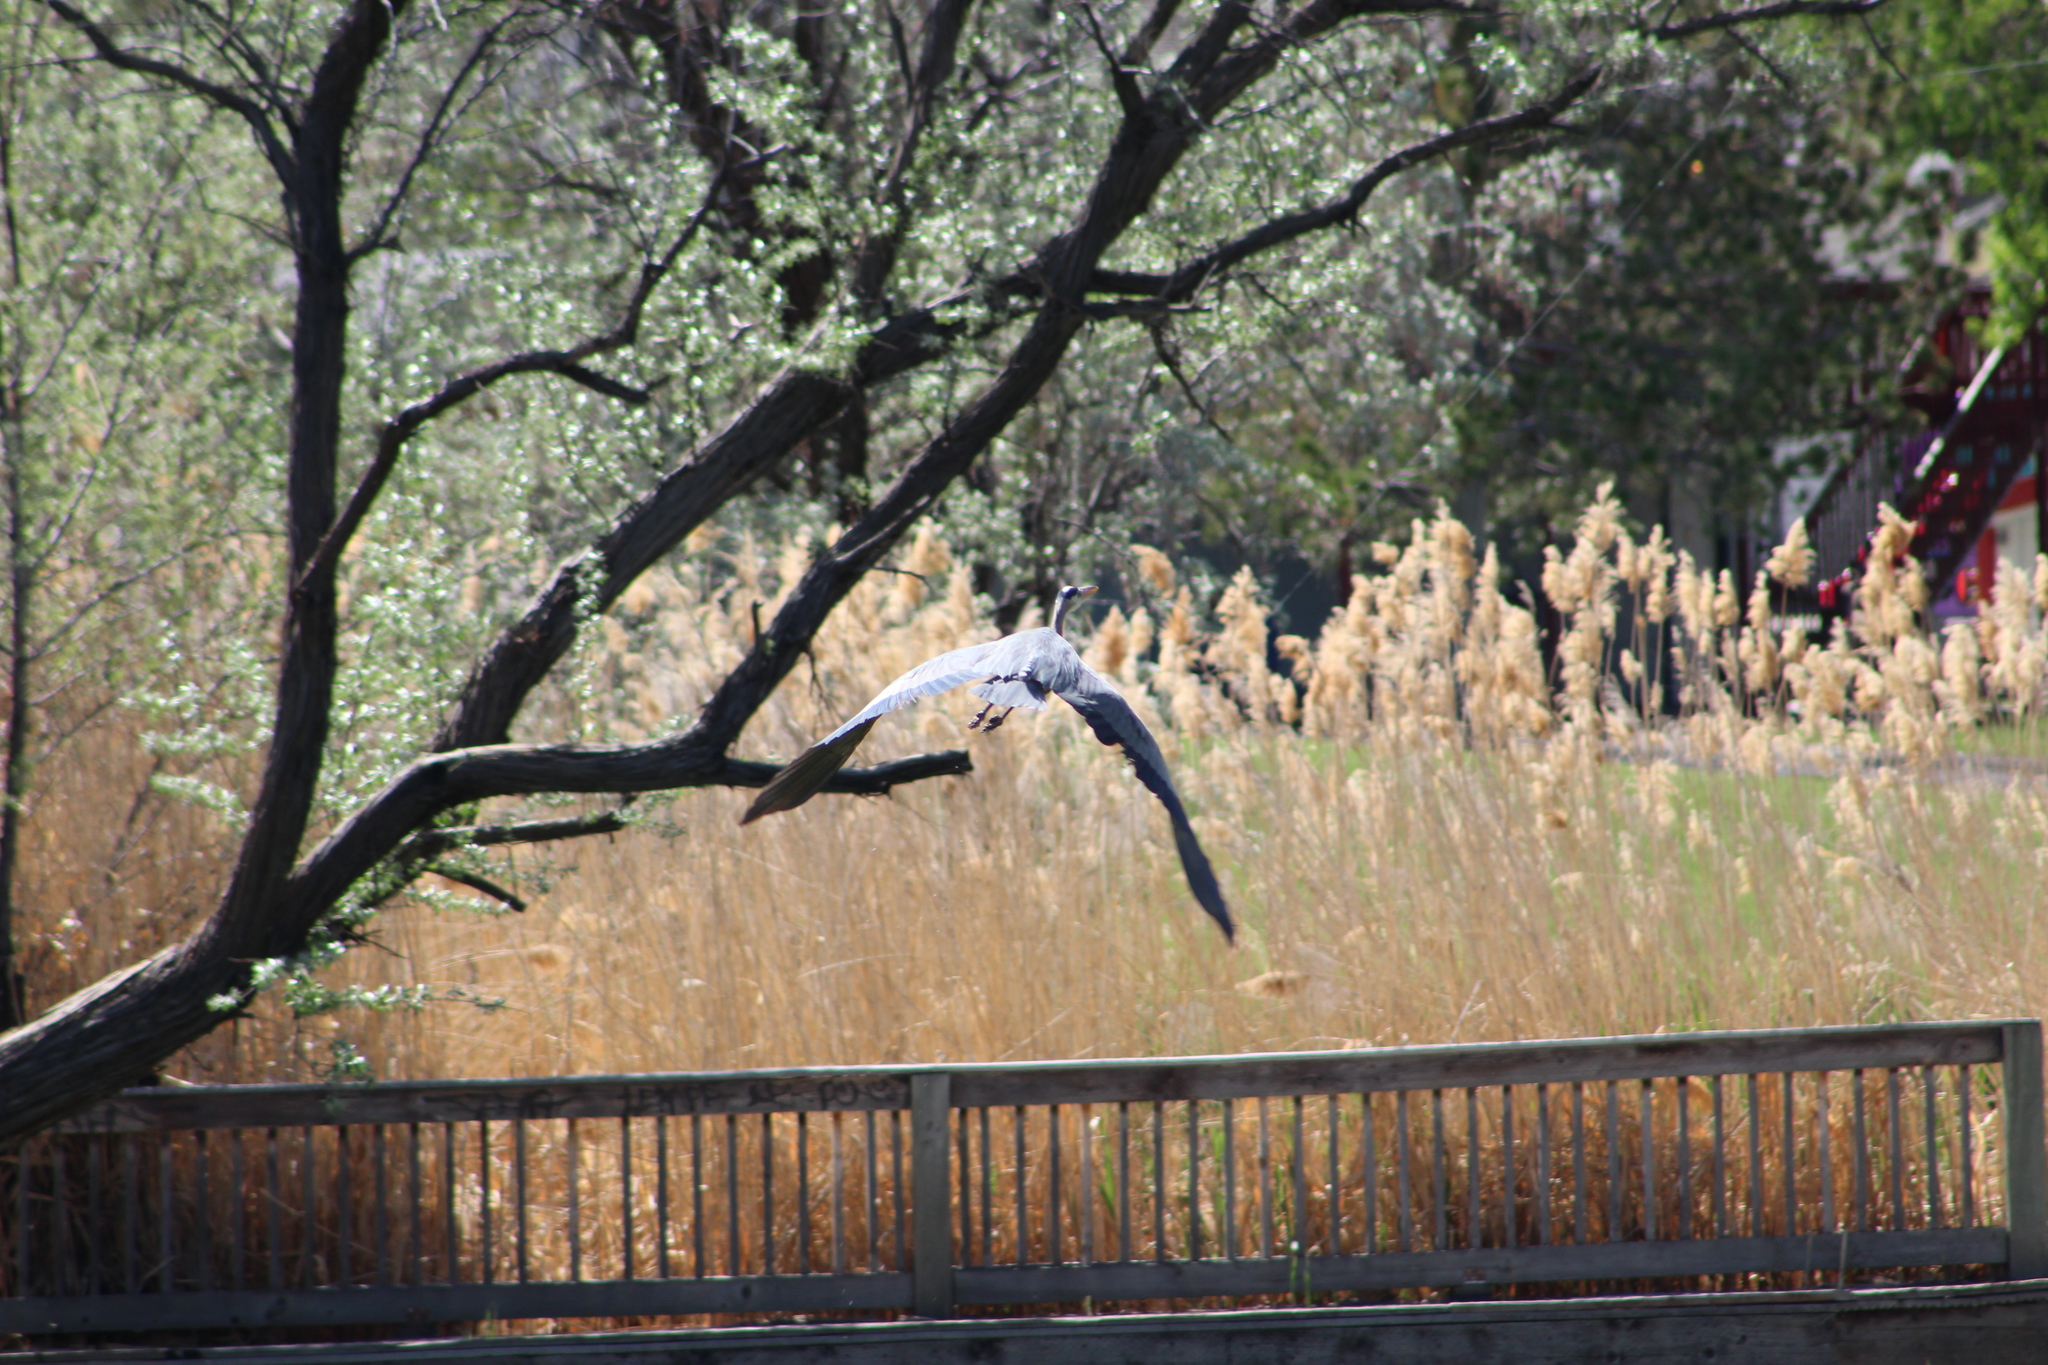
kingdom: Animalia
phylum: Chordata
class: Aves
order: Pelecaniformes
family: Ardeidae
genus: Ardea
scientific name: Ardea herodias
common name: Great blue heron
